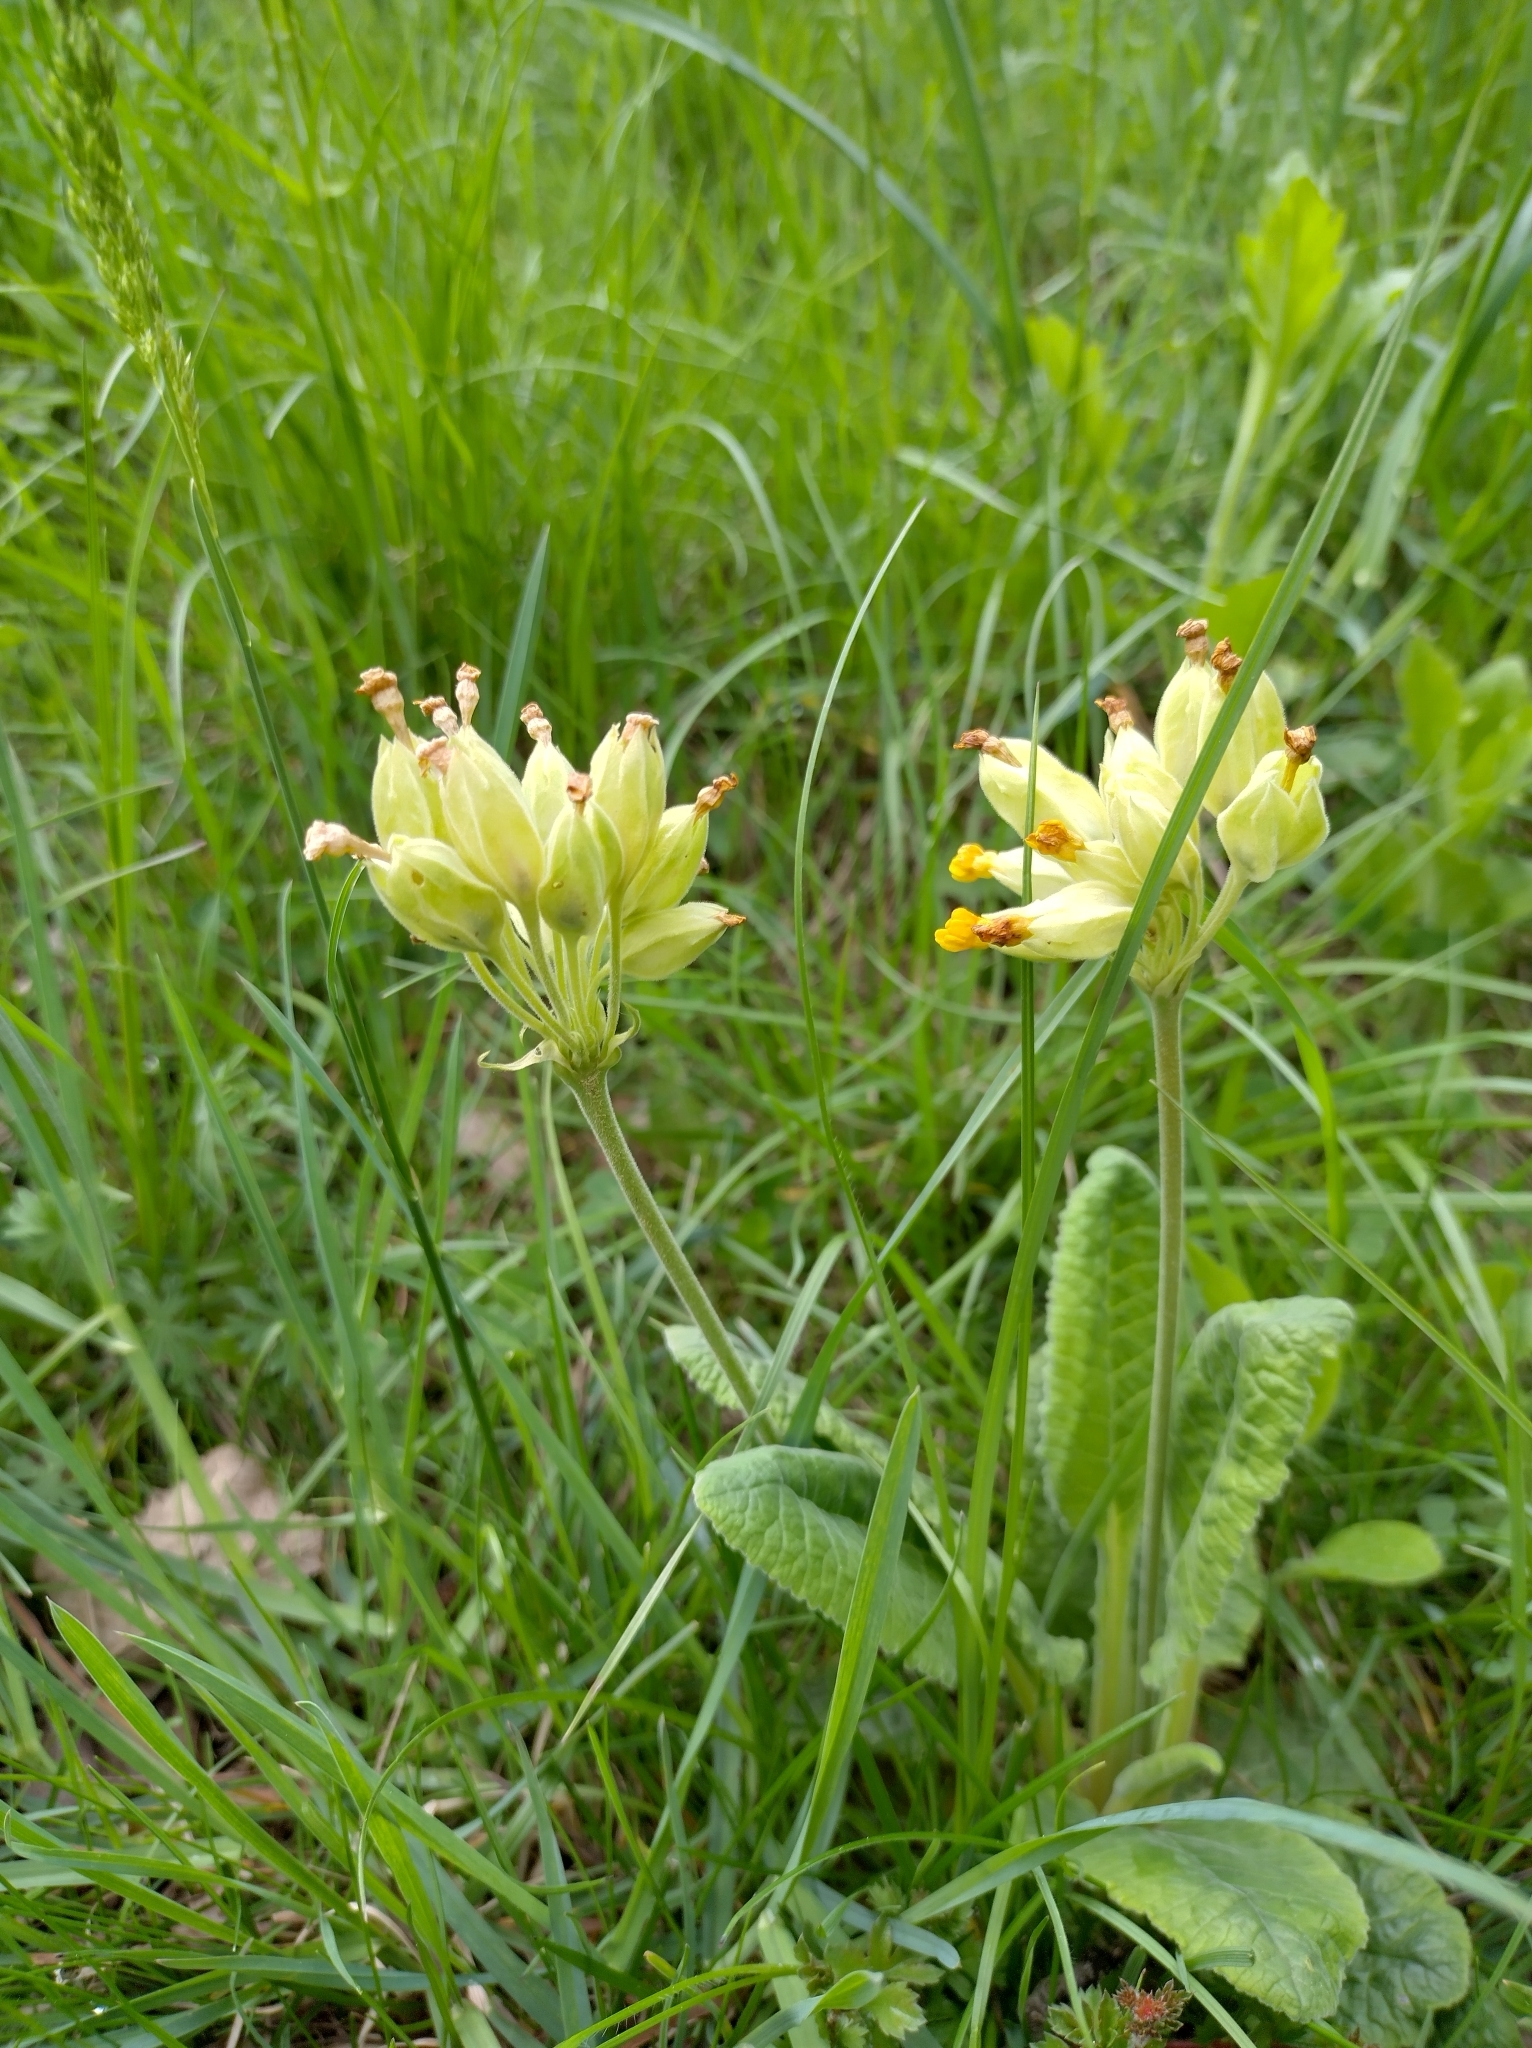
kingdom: Plantae
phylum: Tracheophyta
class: Magnoliopsida
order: Ericales
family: Primulaceae
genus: Primula
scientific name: Primula veris
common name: Cowslip
